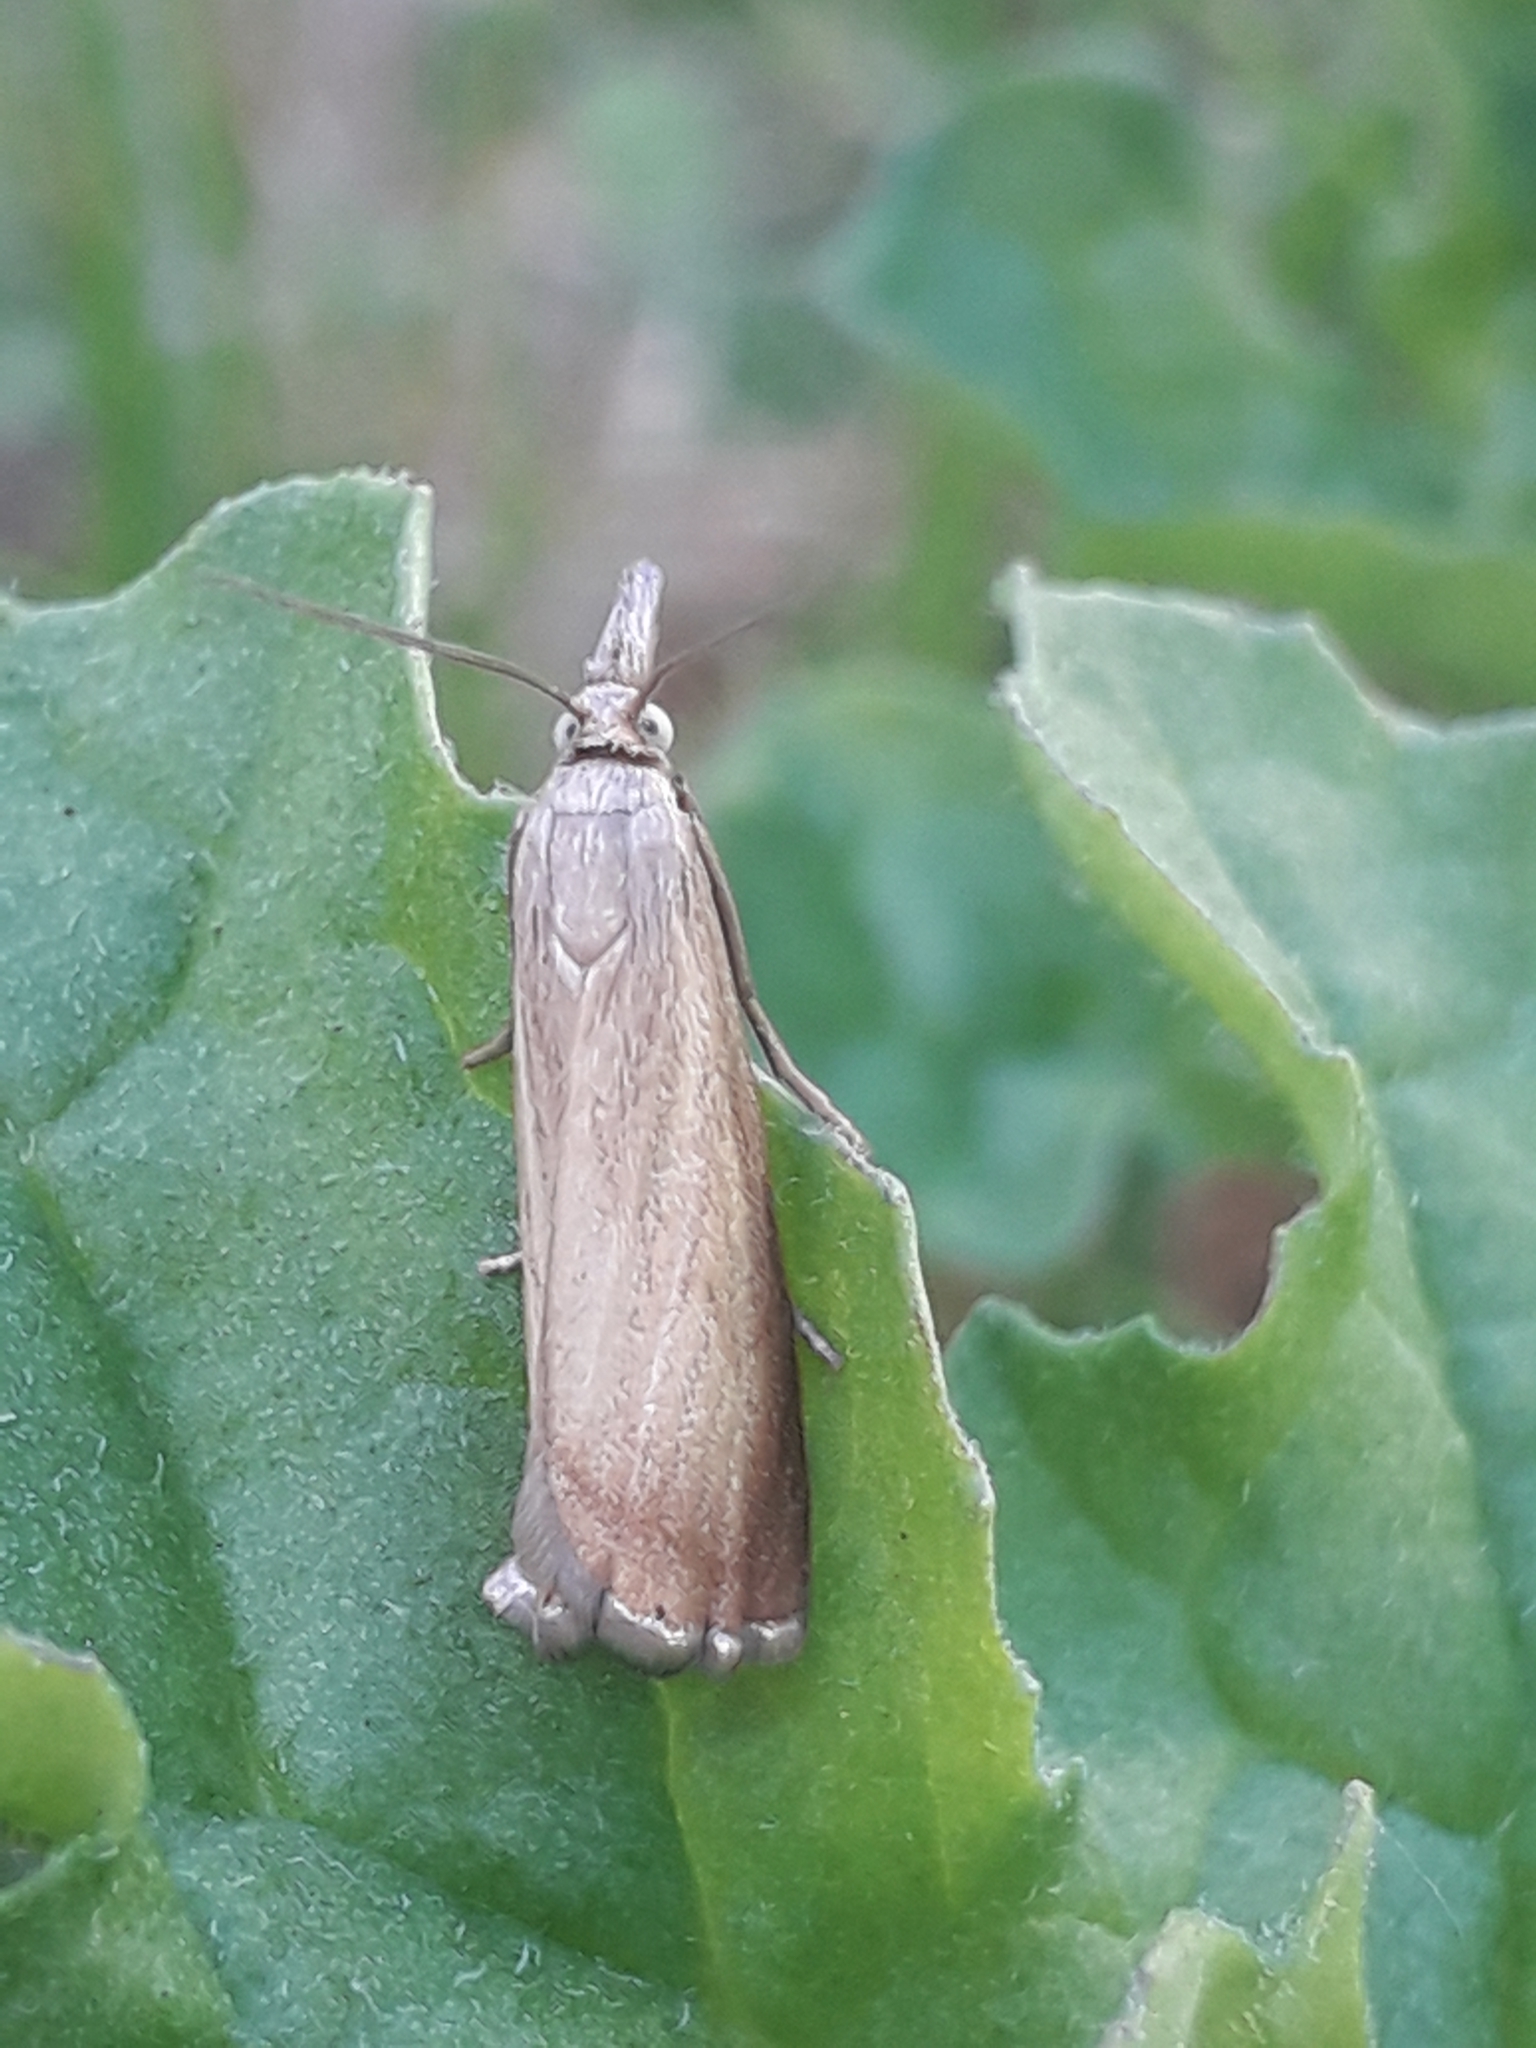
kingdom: Animalia
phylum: Arthropoda
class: Insecta
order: Lepidoptera
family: Crambidae
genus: Chrysoteuchia
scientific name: Chrysoteuchia culmella
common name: Garden grass-veneer
